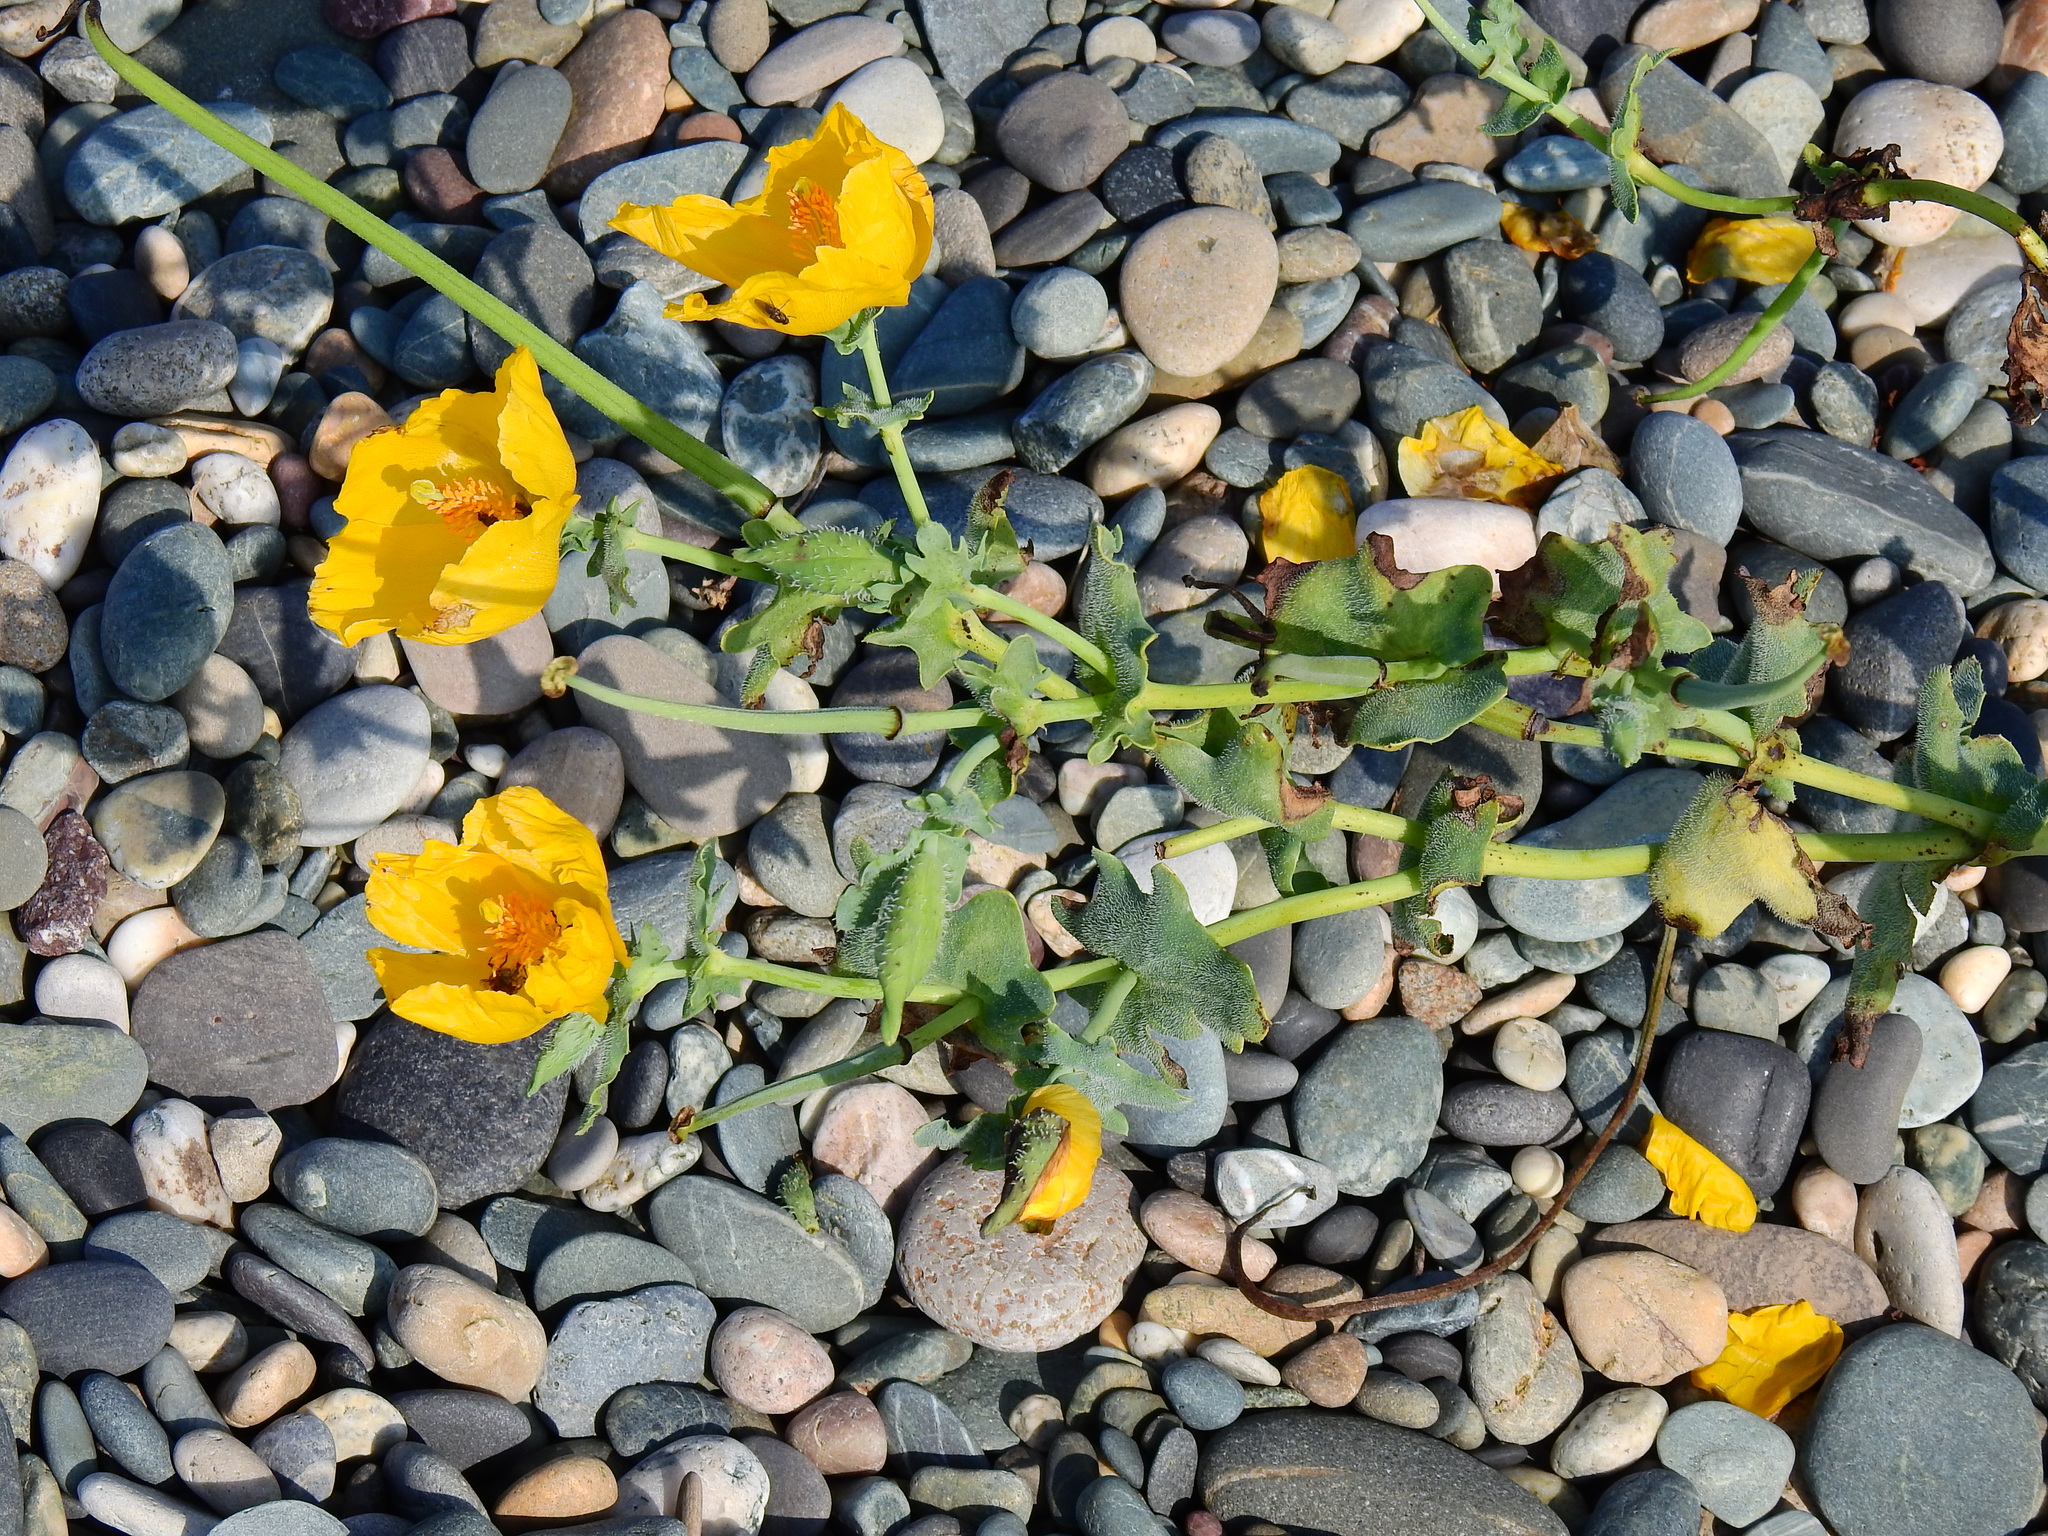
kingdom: Plantae
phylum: Tracheophyta
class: Magnoliopsida
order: Ranunculales
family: Papaveraceae
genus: Glaucium
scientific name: Glaucium flavum
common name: Yellow horned-poppy
